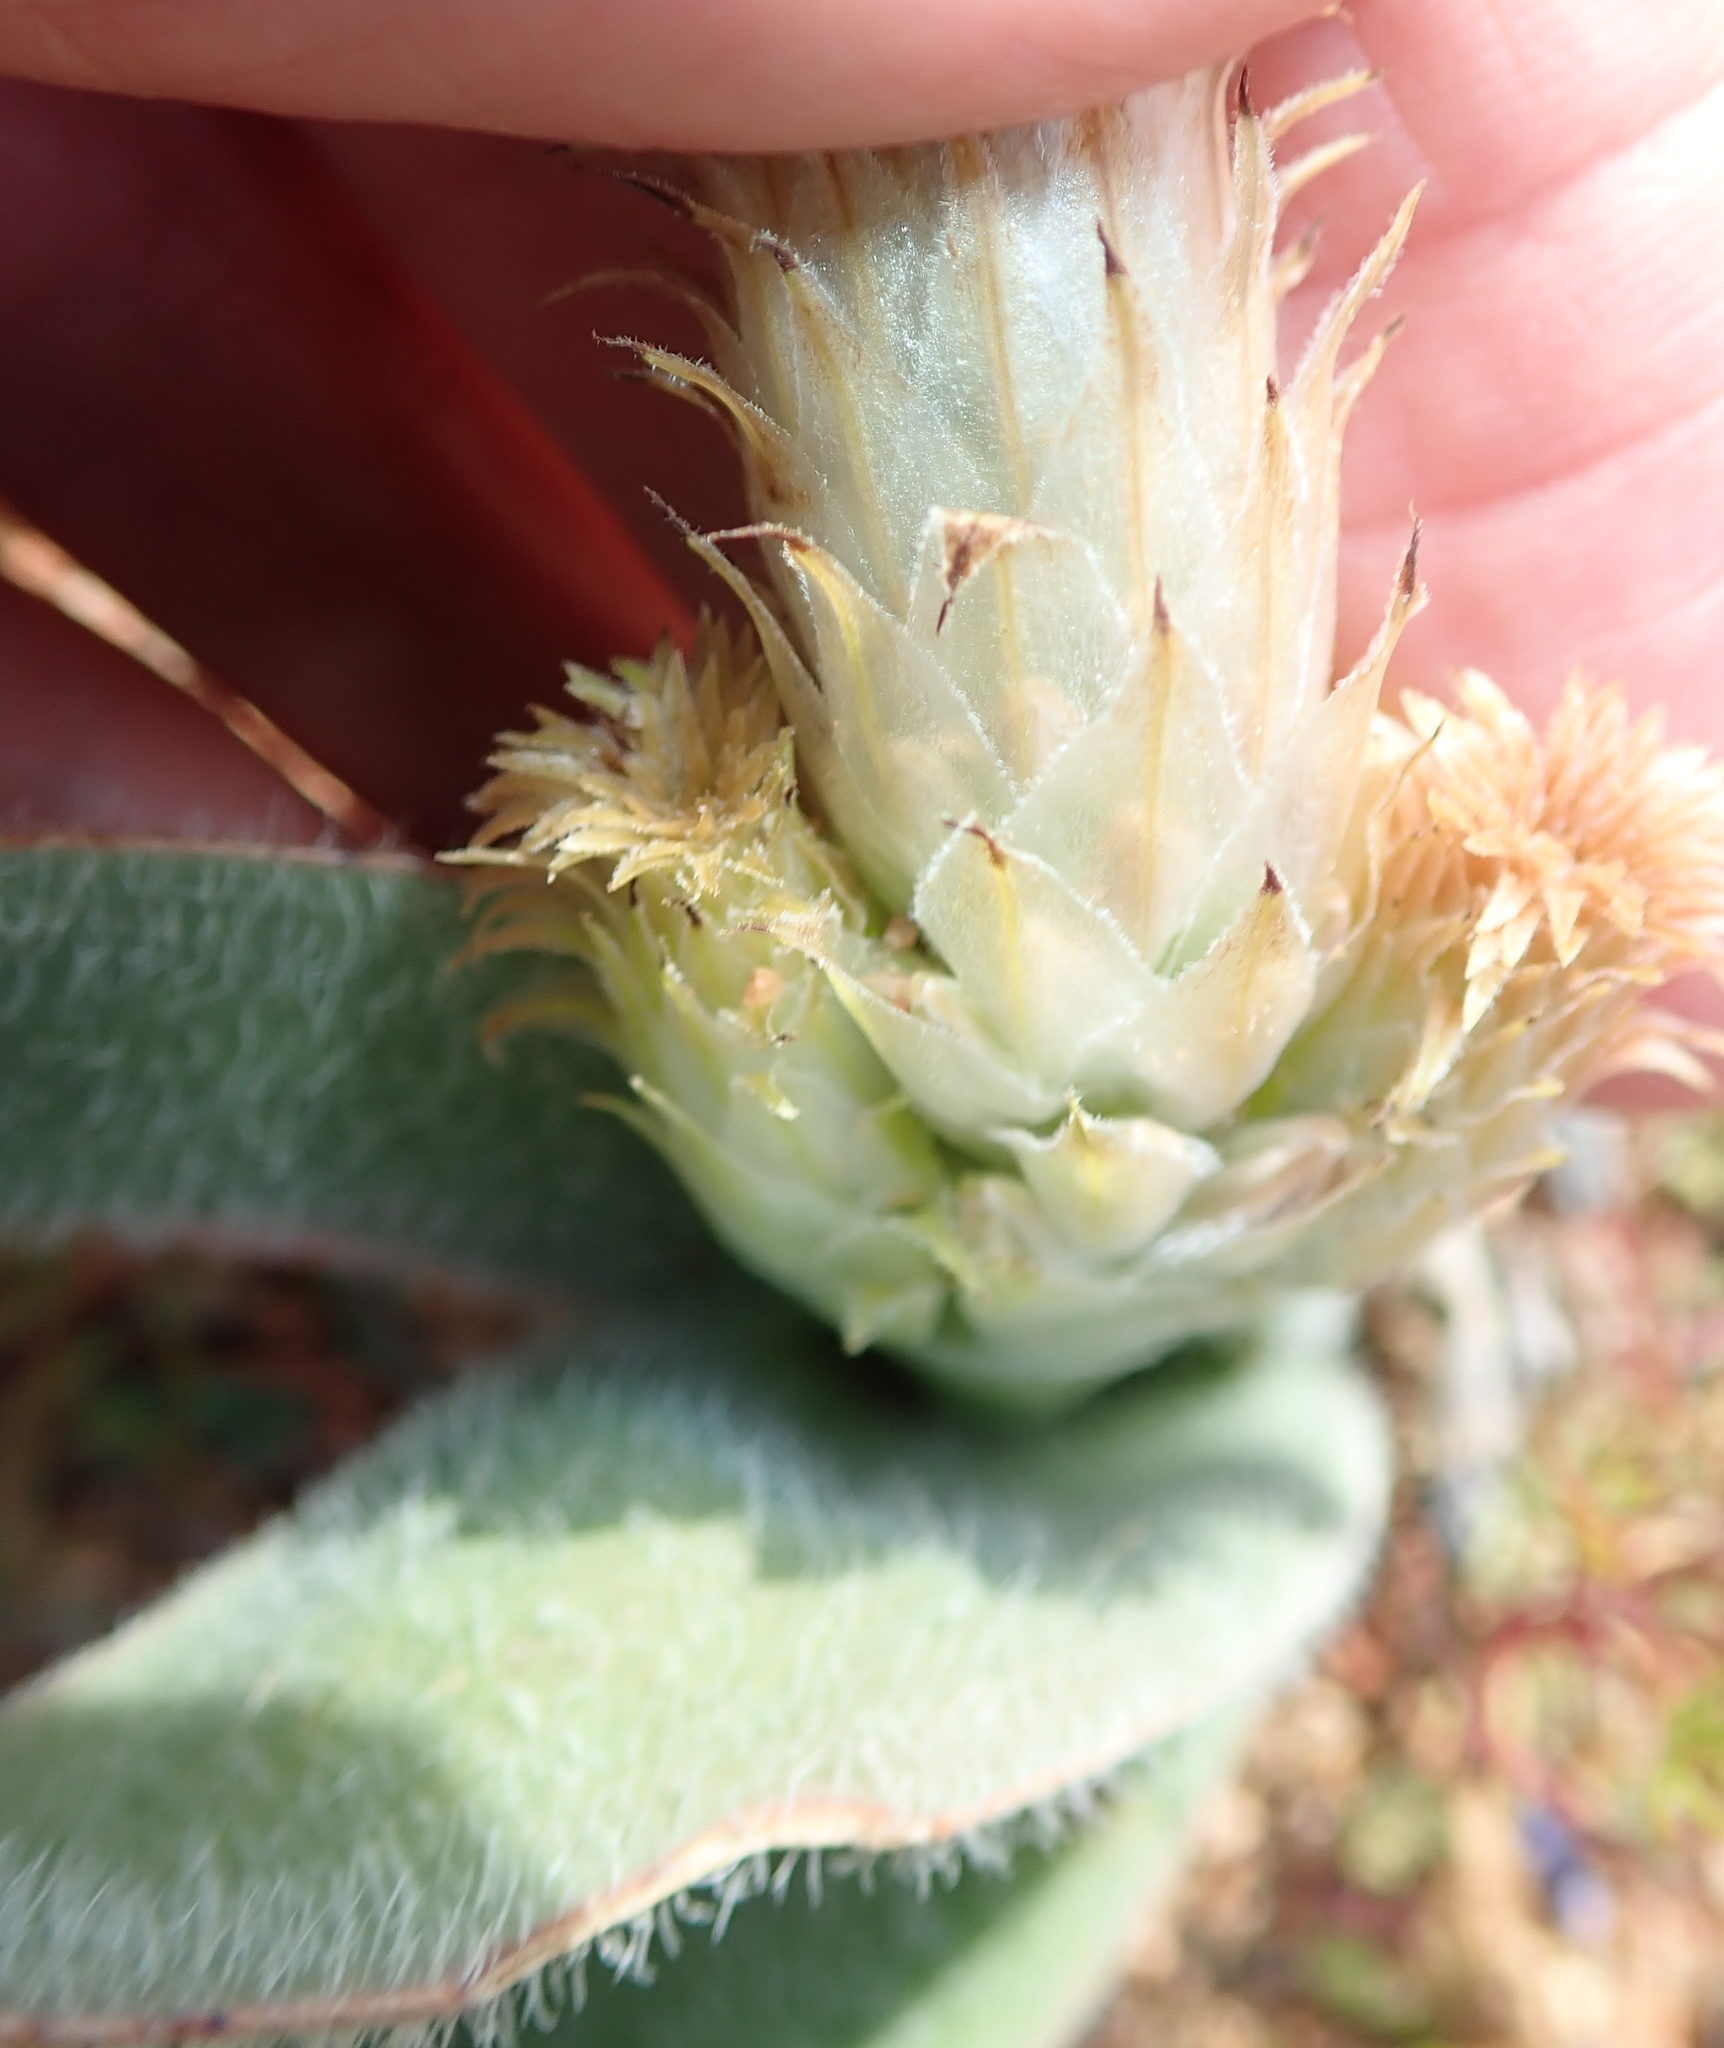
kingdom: Plantae
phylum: Tracheophyta
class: Liliopsida
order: Asparagales
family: Asphodelaceae
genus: Trachyandra
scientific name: Trachyandra falcata
